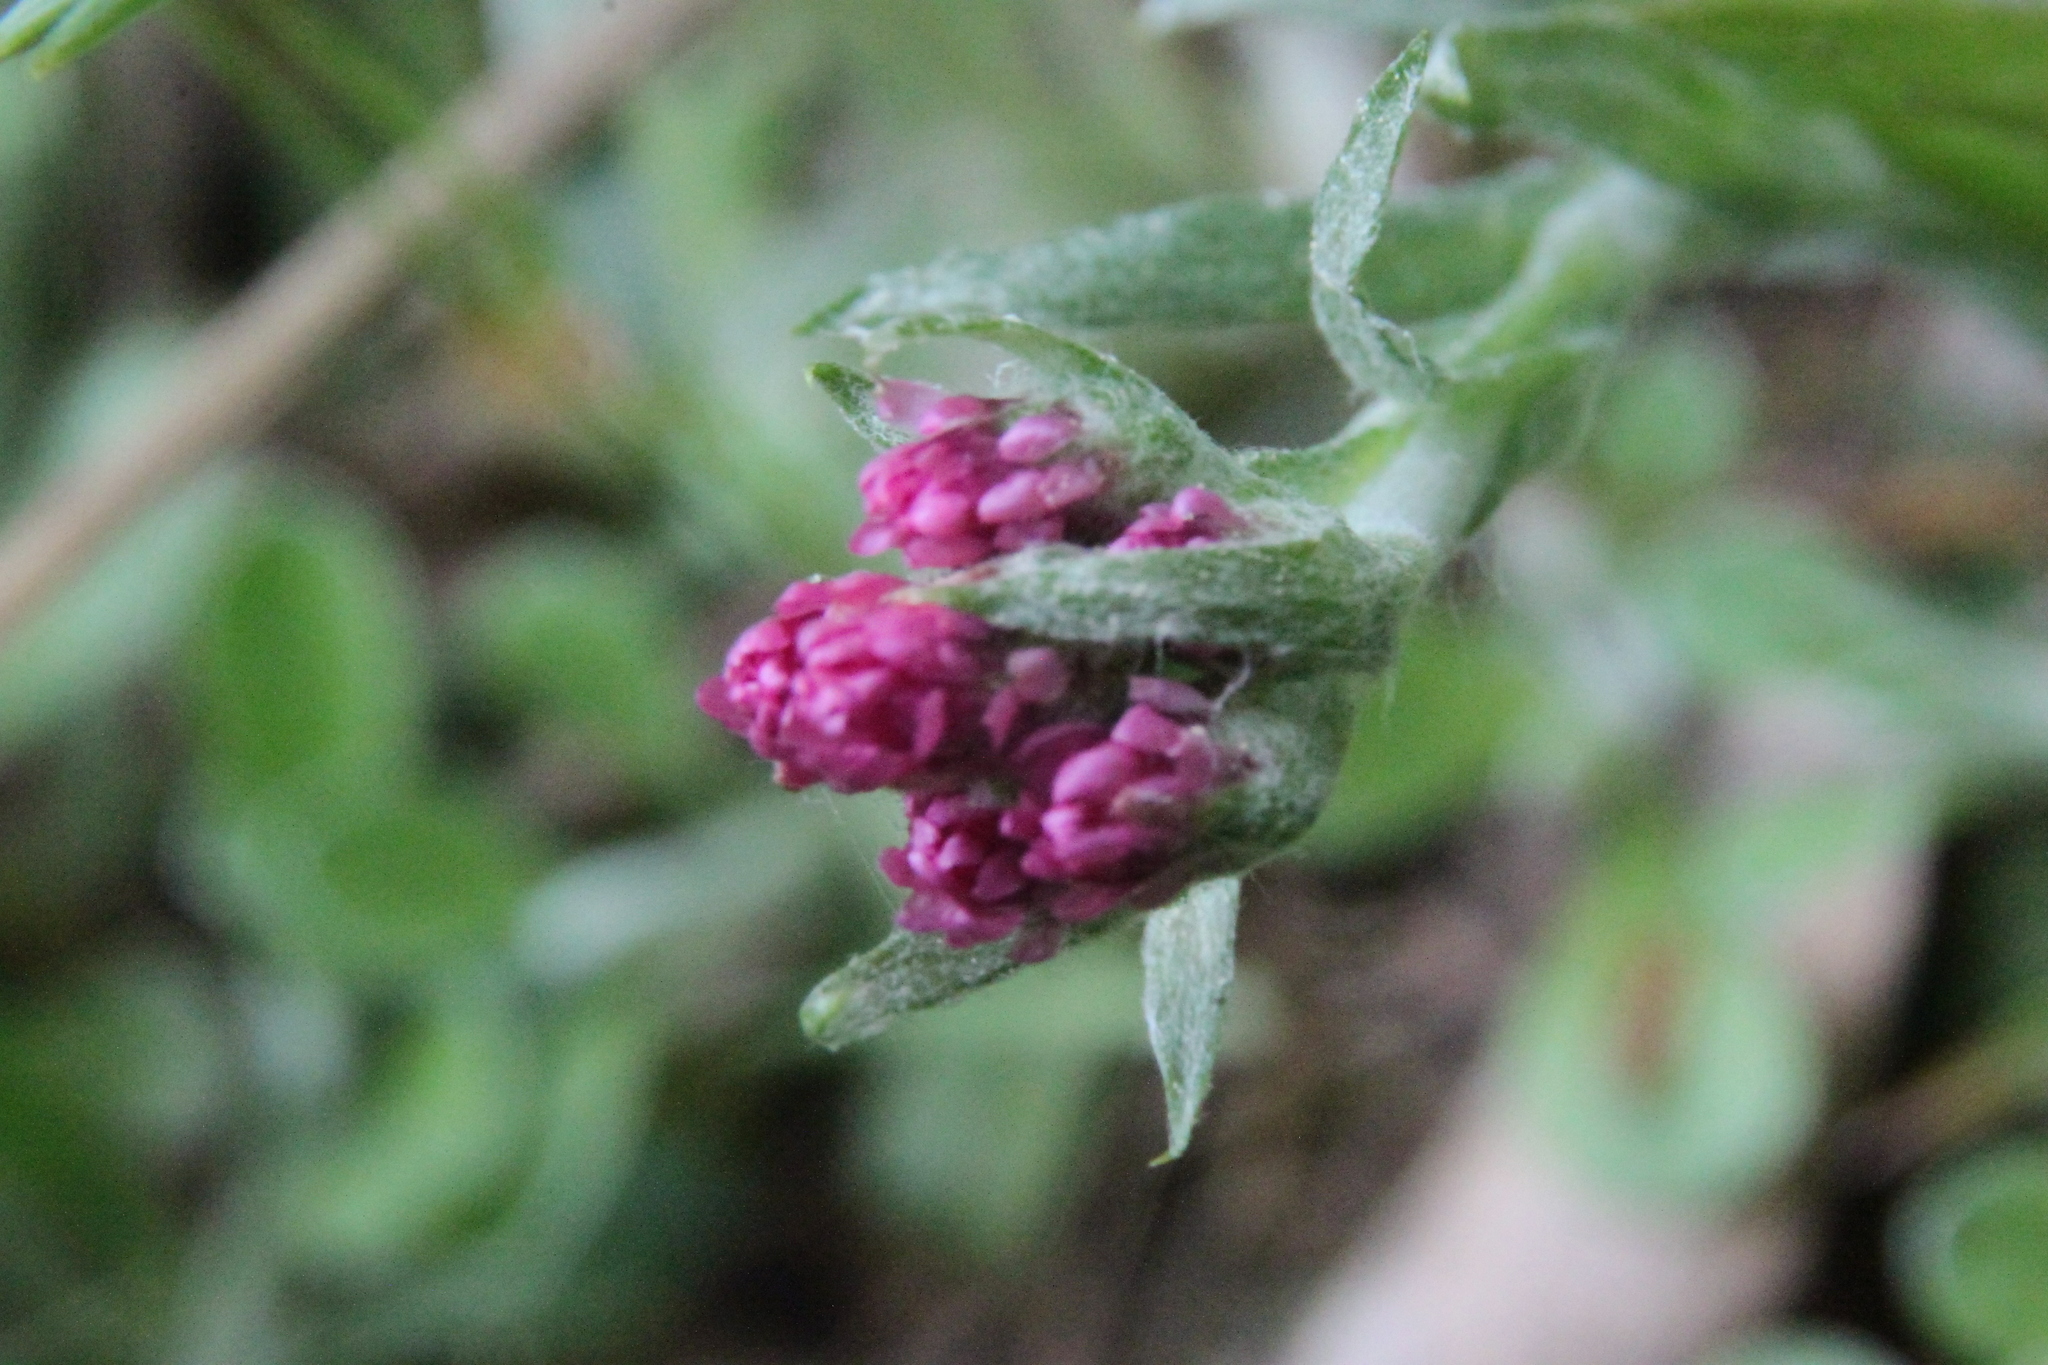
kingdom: Plantae
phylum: Tracheophyta
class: Magnoliopsida
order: Asterales
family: Asteraceae
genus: Antennaria
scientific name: Antennaria dioica
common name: Mountain everlasting
